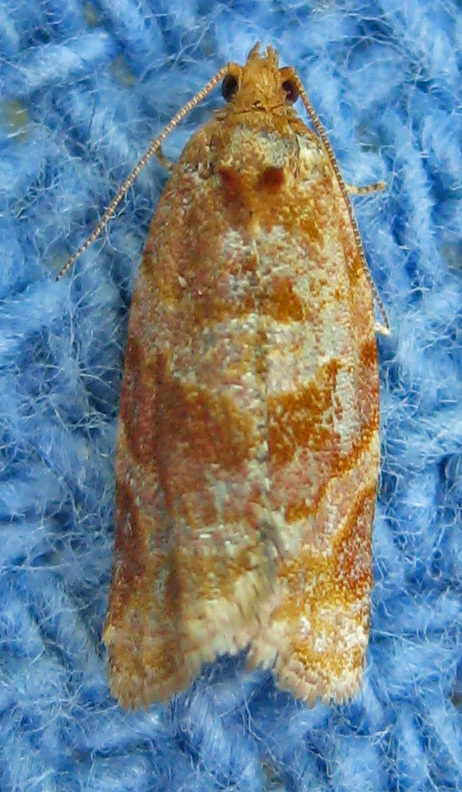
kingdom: Animalia
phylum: Arthropoda
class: Insecta
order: Lepidoptera
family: Tortricidae
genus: Argyrotaenia
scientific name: Argyrotaenia pinatubana
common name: Pine tube moth
